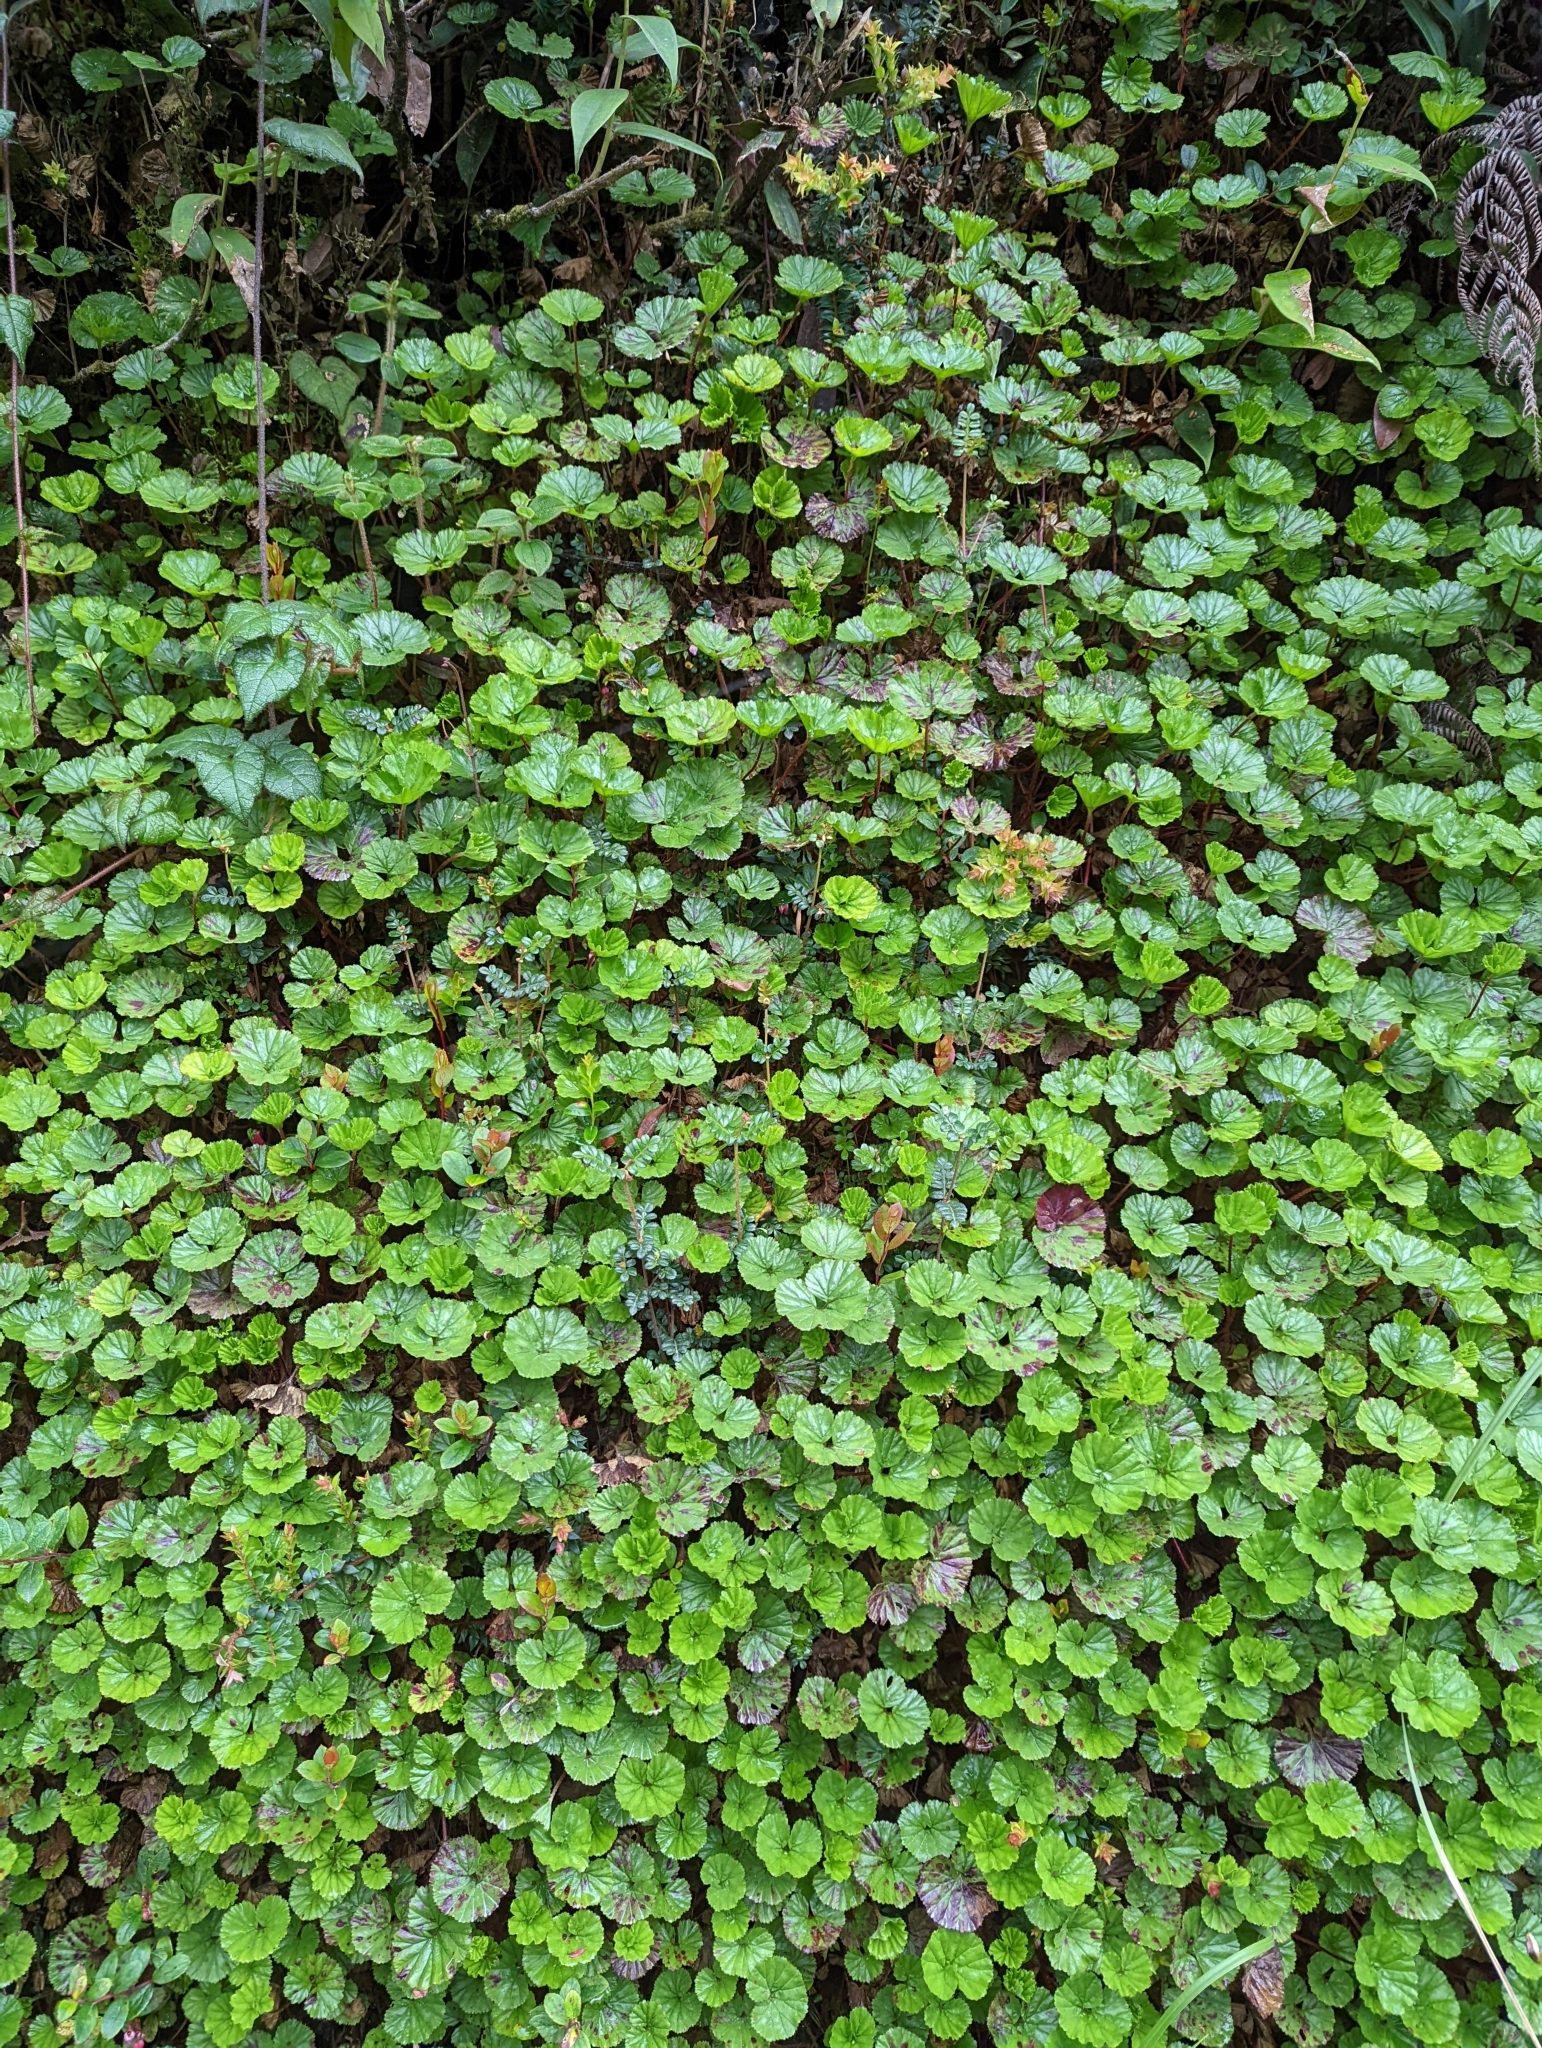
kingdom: Plantae
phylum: Tracheophyta
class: Magnoliopsida
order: Gunnerales
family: Gunneraceae
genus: Gunnera
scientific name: Gunnera magellanica
